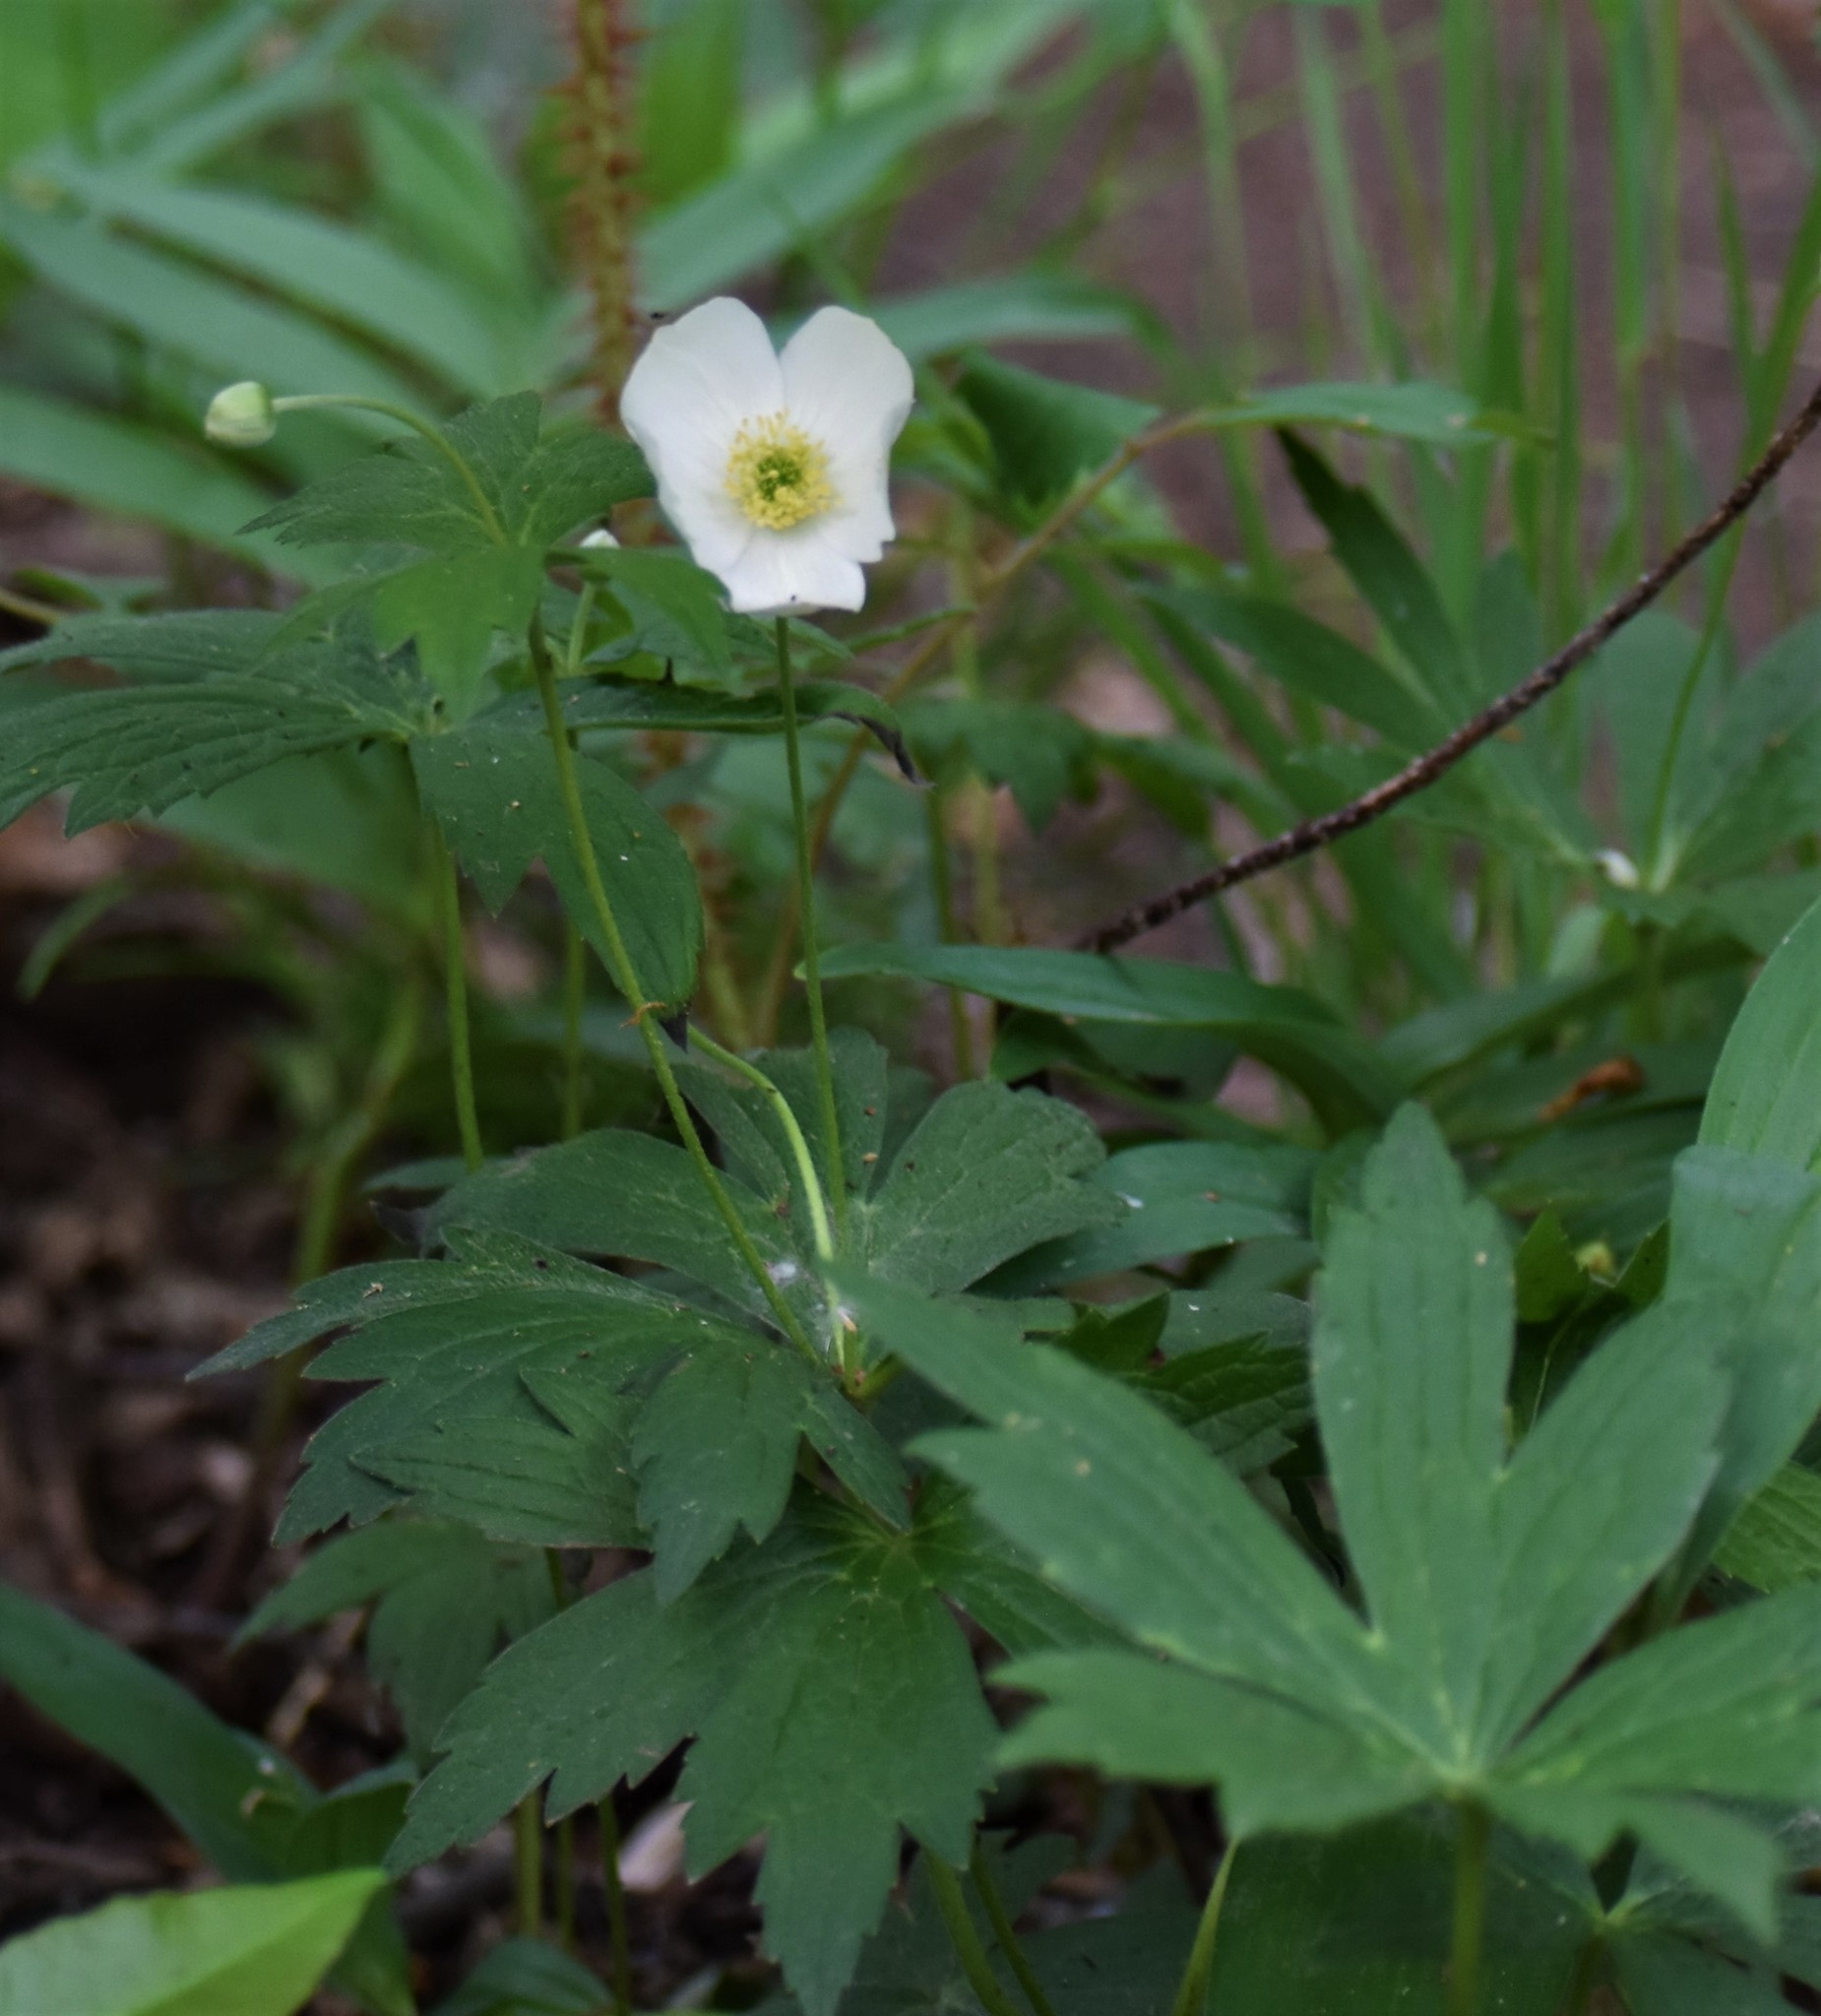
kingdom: Plantae
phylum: Tracheophyta
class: Magnoliopsida
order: Ranunculales
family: Ranunculaceae
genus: Anemonastrum
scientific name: Anemonastrum canadense
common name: Canada anemone
